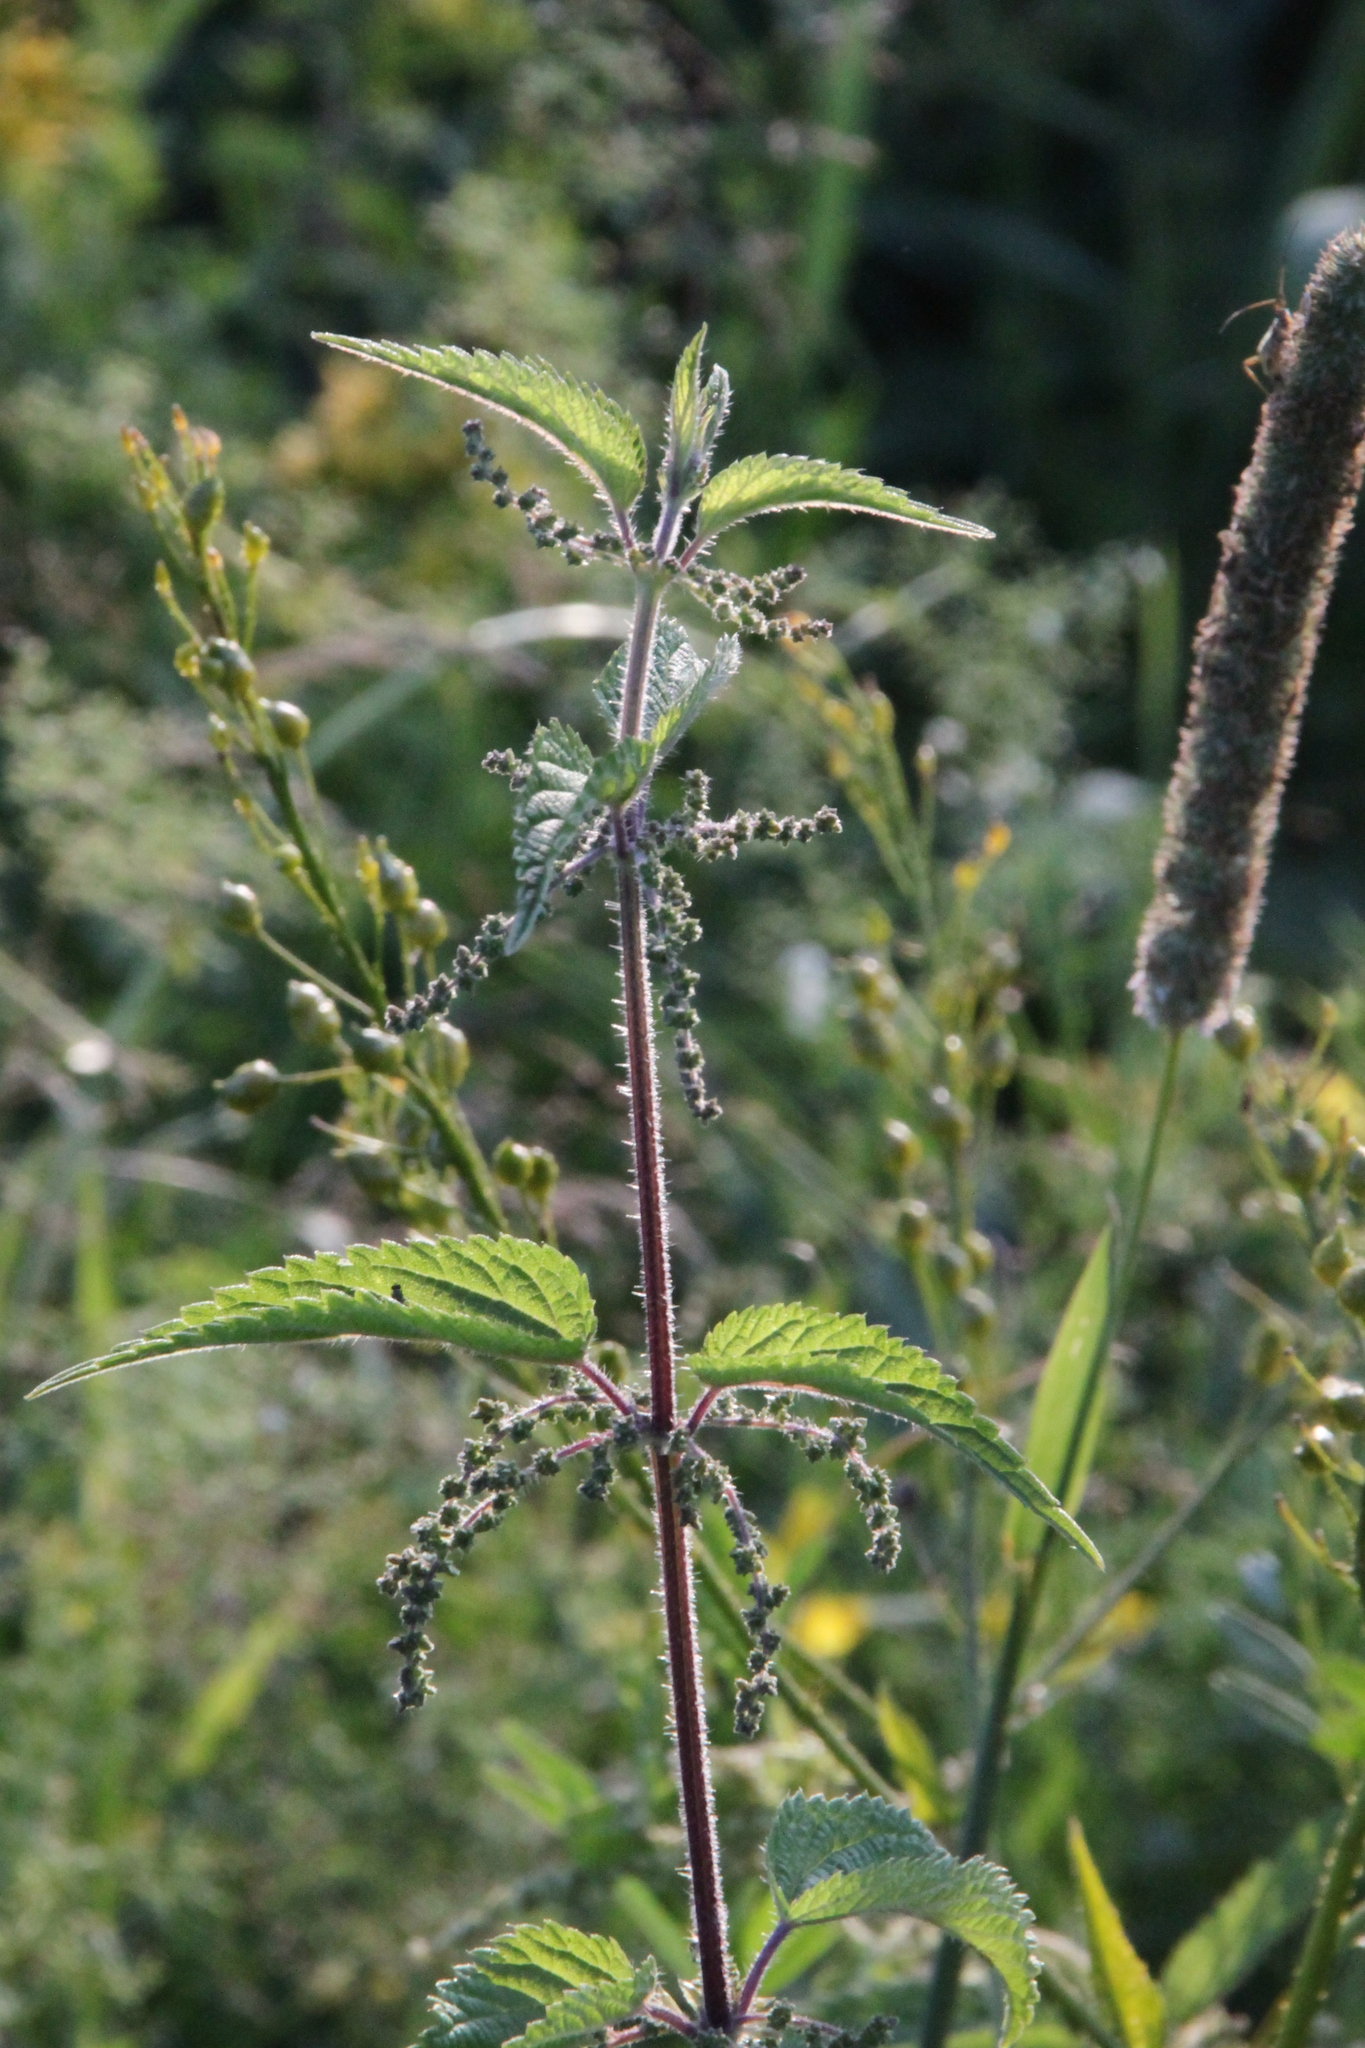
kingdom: Plantae
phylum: Tracheophyta
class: Magnoliopsida
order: Rosales
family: Urticaceae
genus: Urtica
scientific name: Urtica dioica
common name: Common nettle
